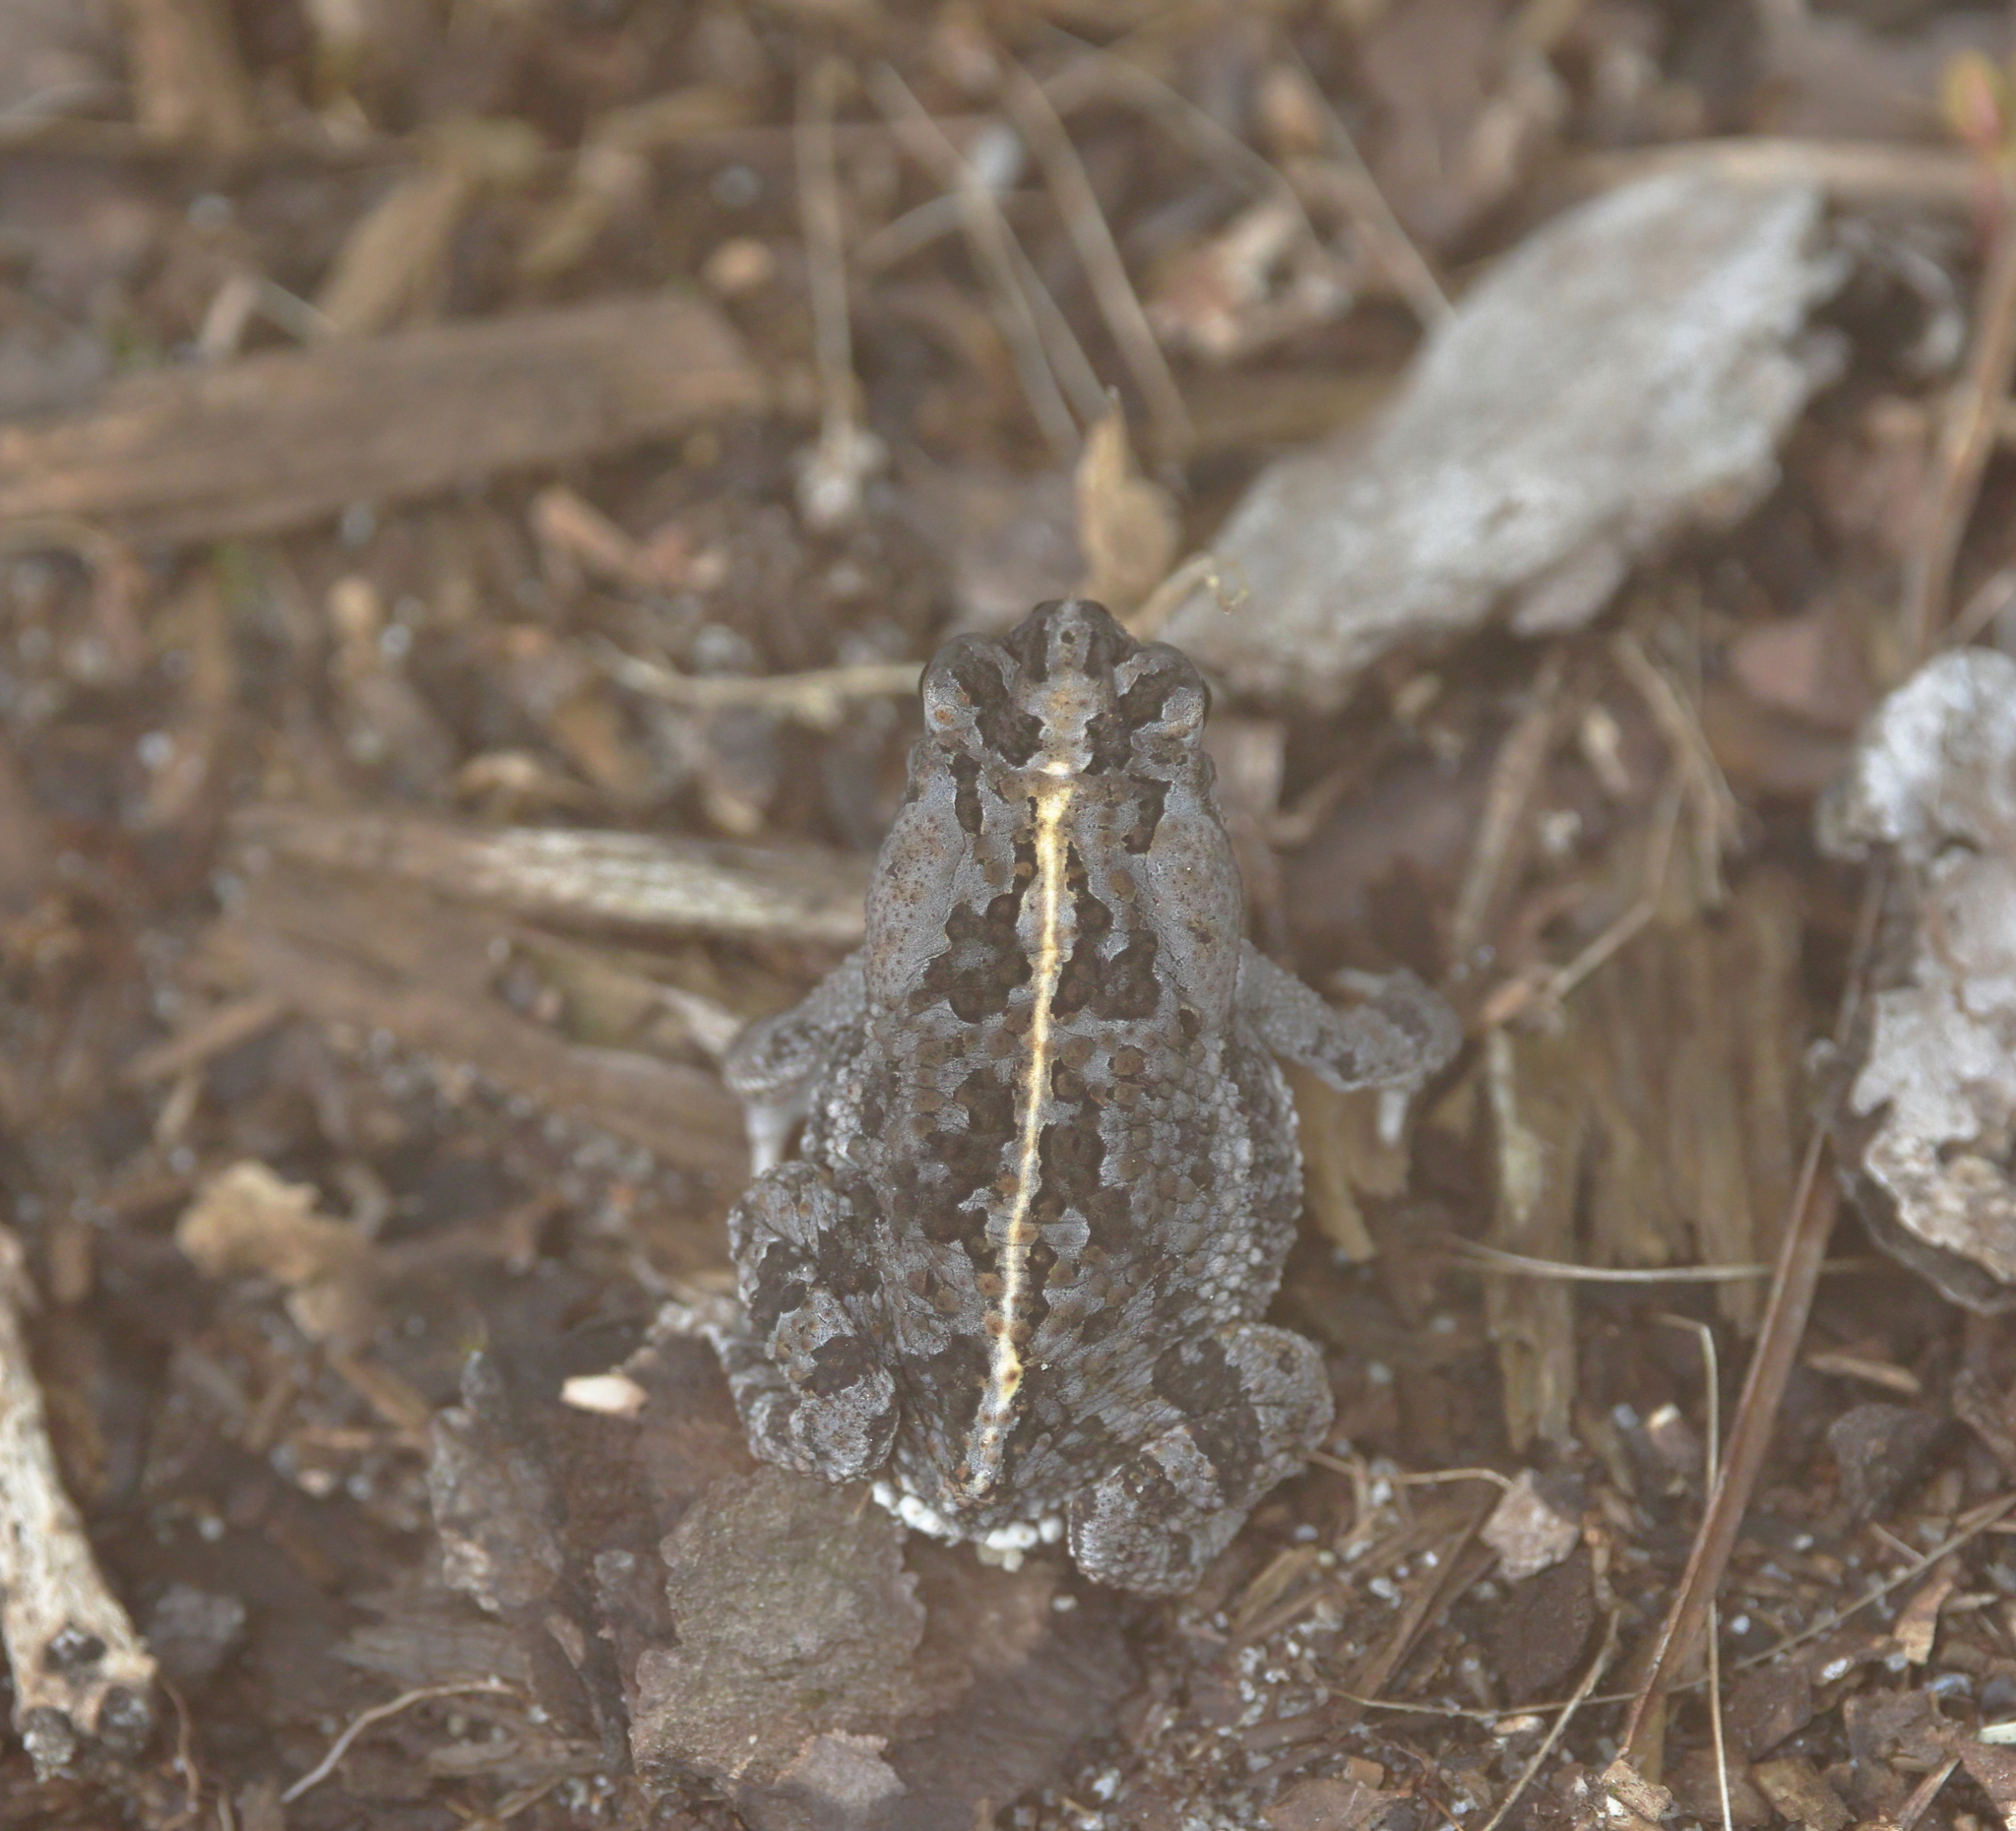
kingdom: Animalia
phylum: Chordata
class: Amphibia
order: Anura
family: Bufonidae
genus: Anaxyrus
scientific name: Anaxyrus quercicus
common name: Oak toad
